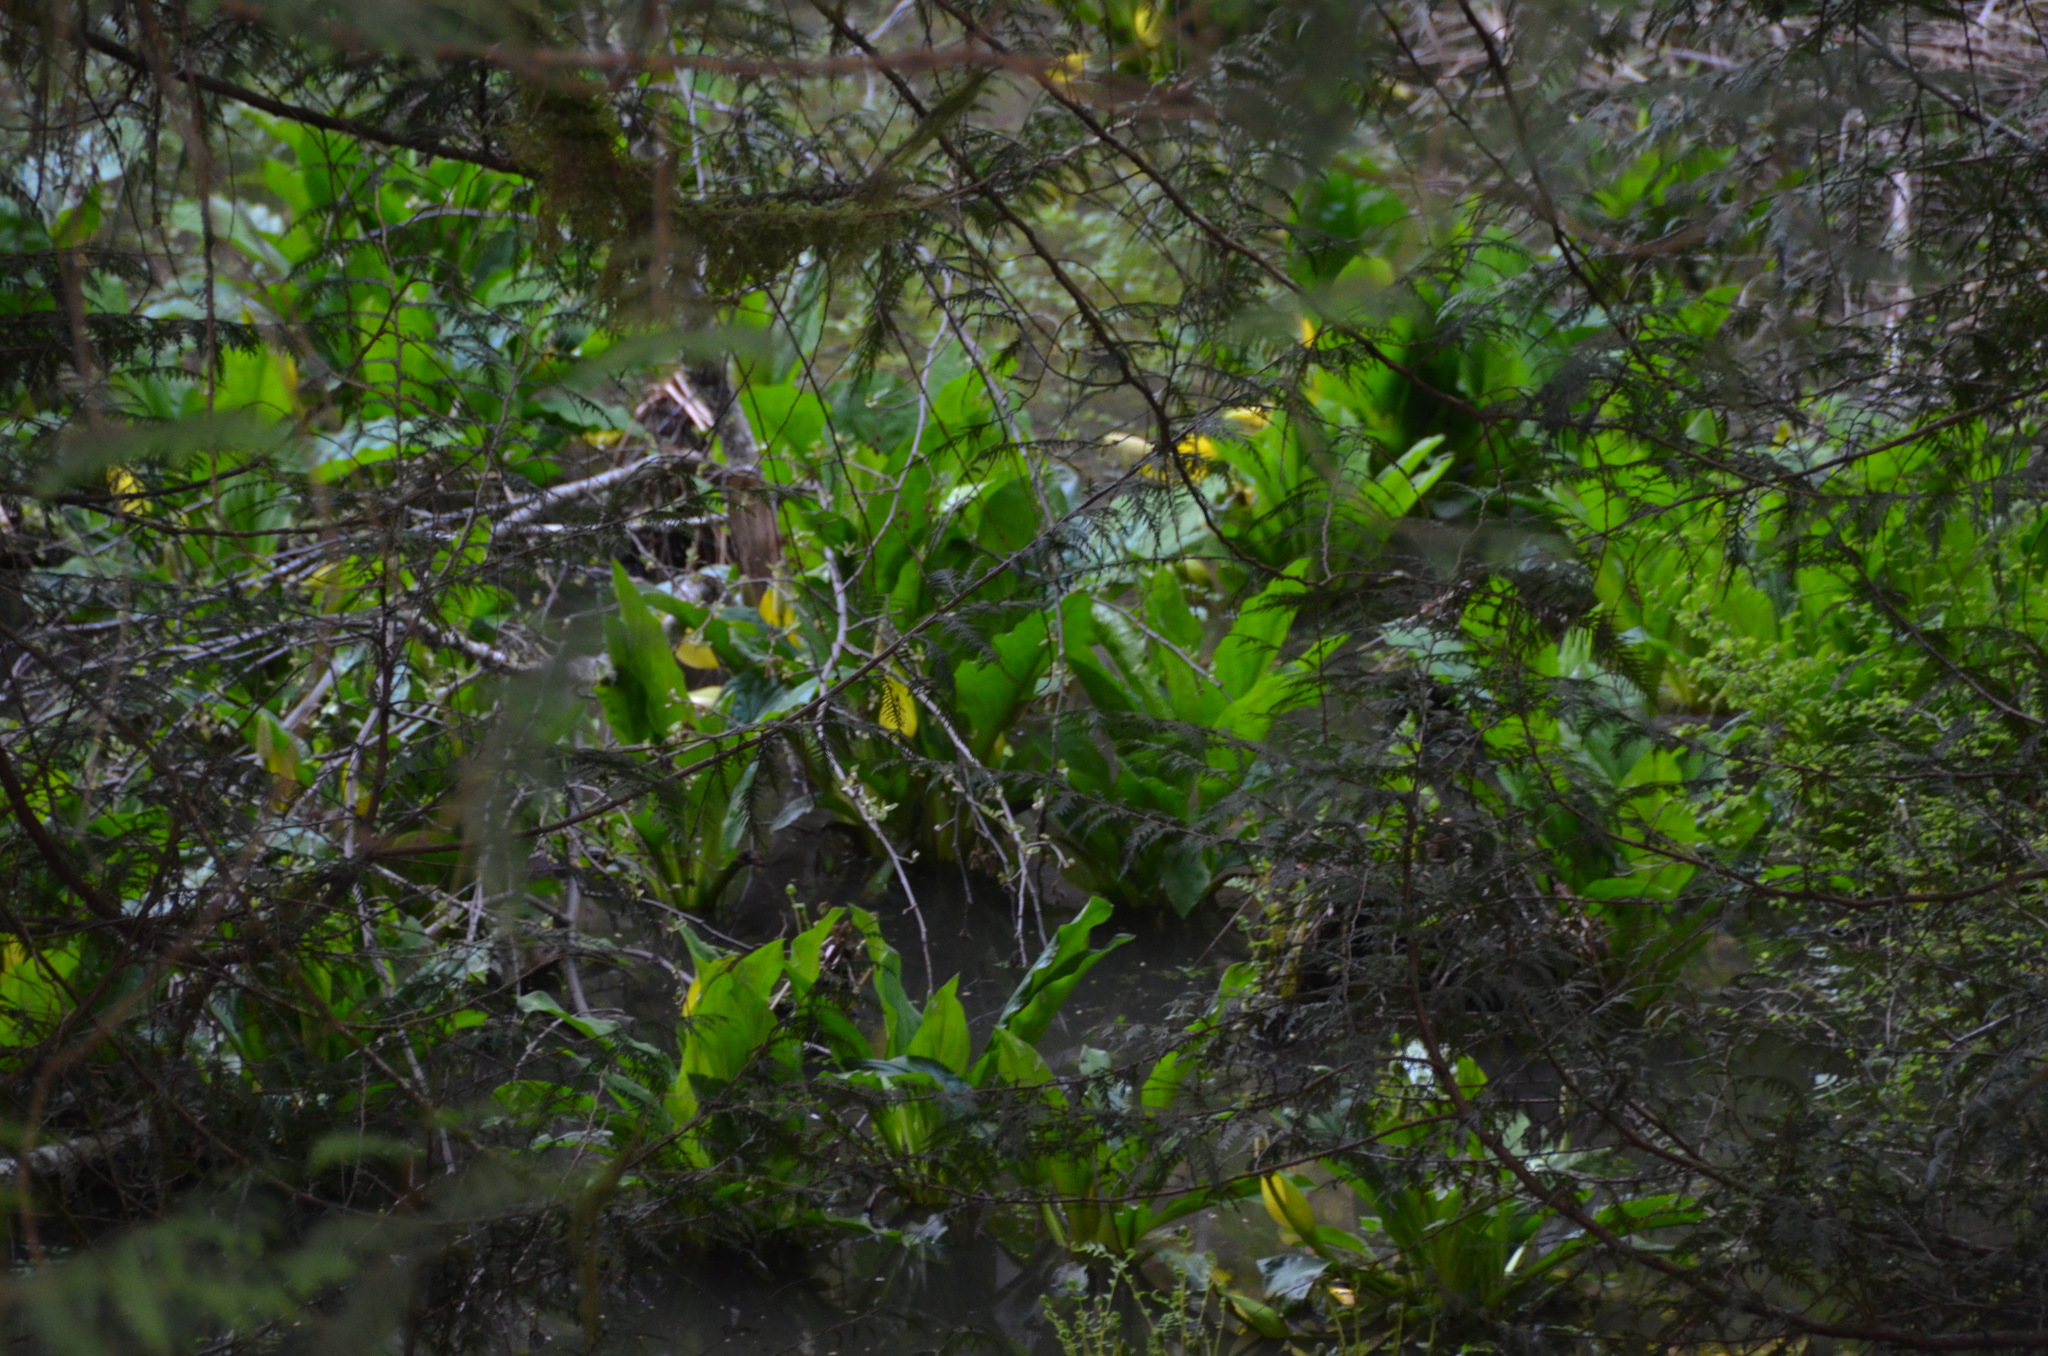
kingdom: Plantae
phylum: Tracheophyta
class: Liliopsida
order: Alismatales
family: Araceae
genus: Lysichiton
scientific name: Lysichiton americanus
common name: American skunk cabbage
